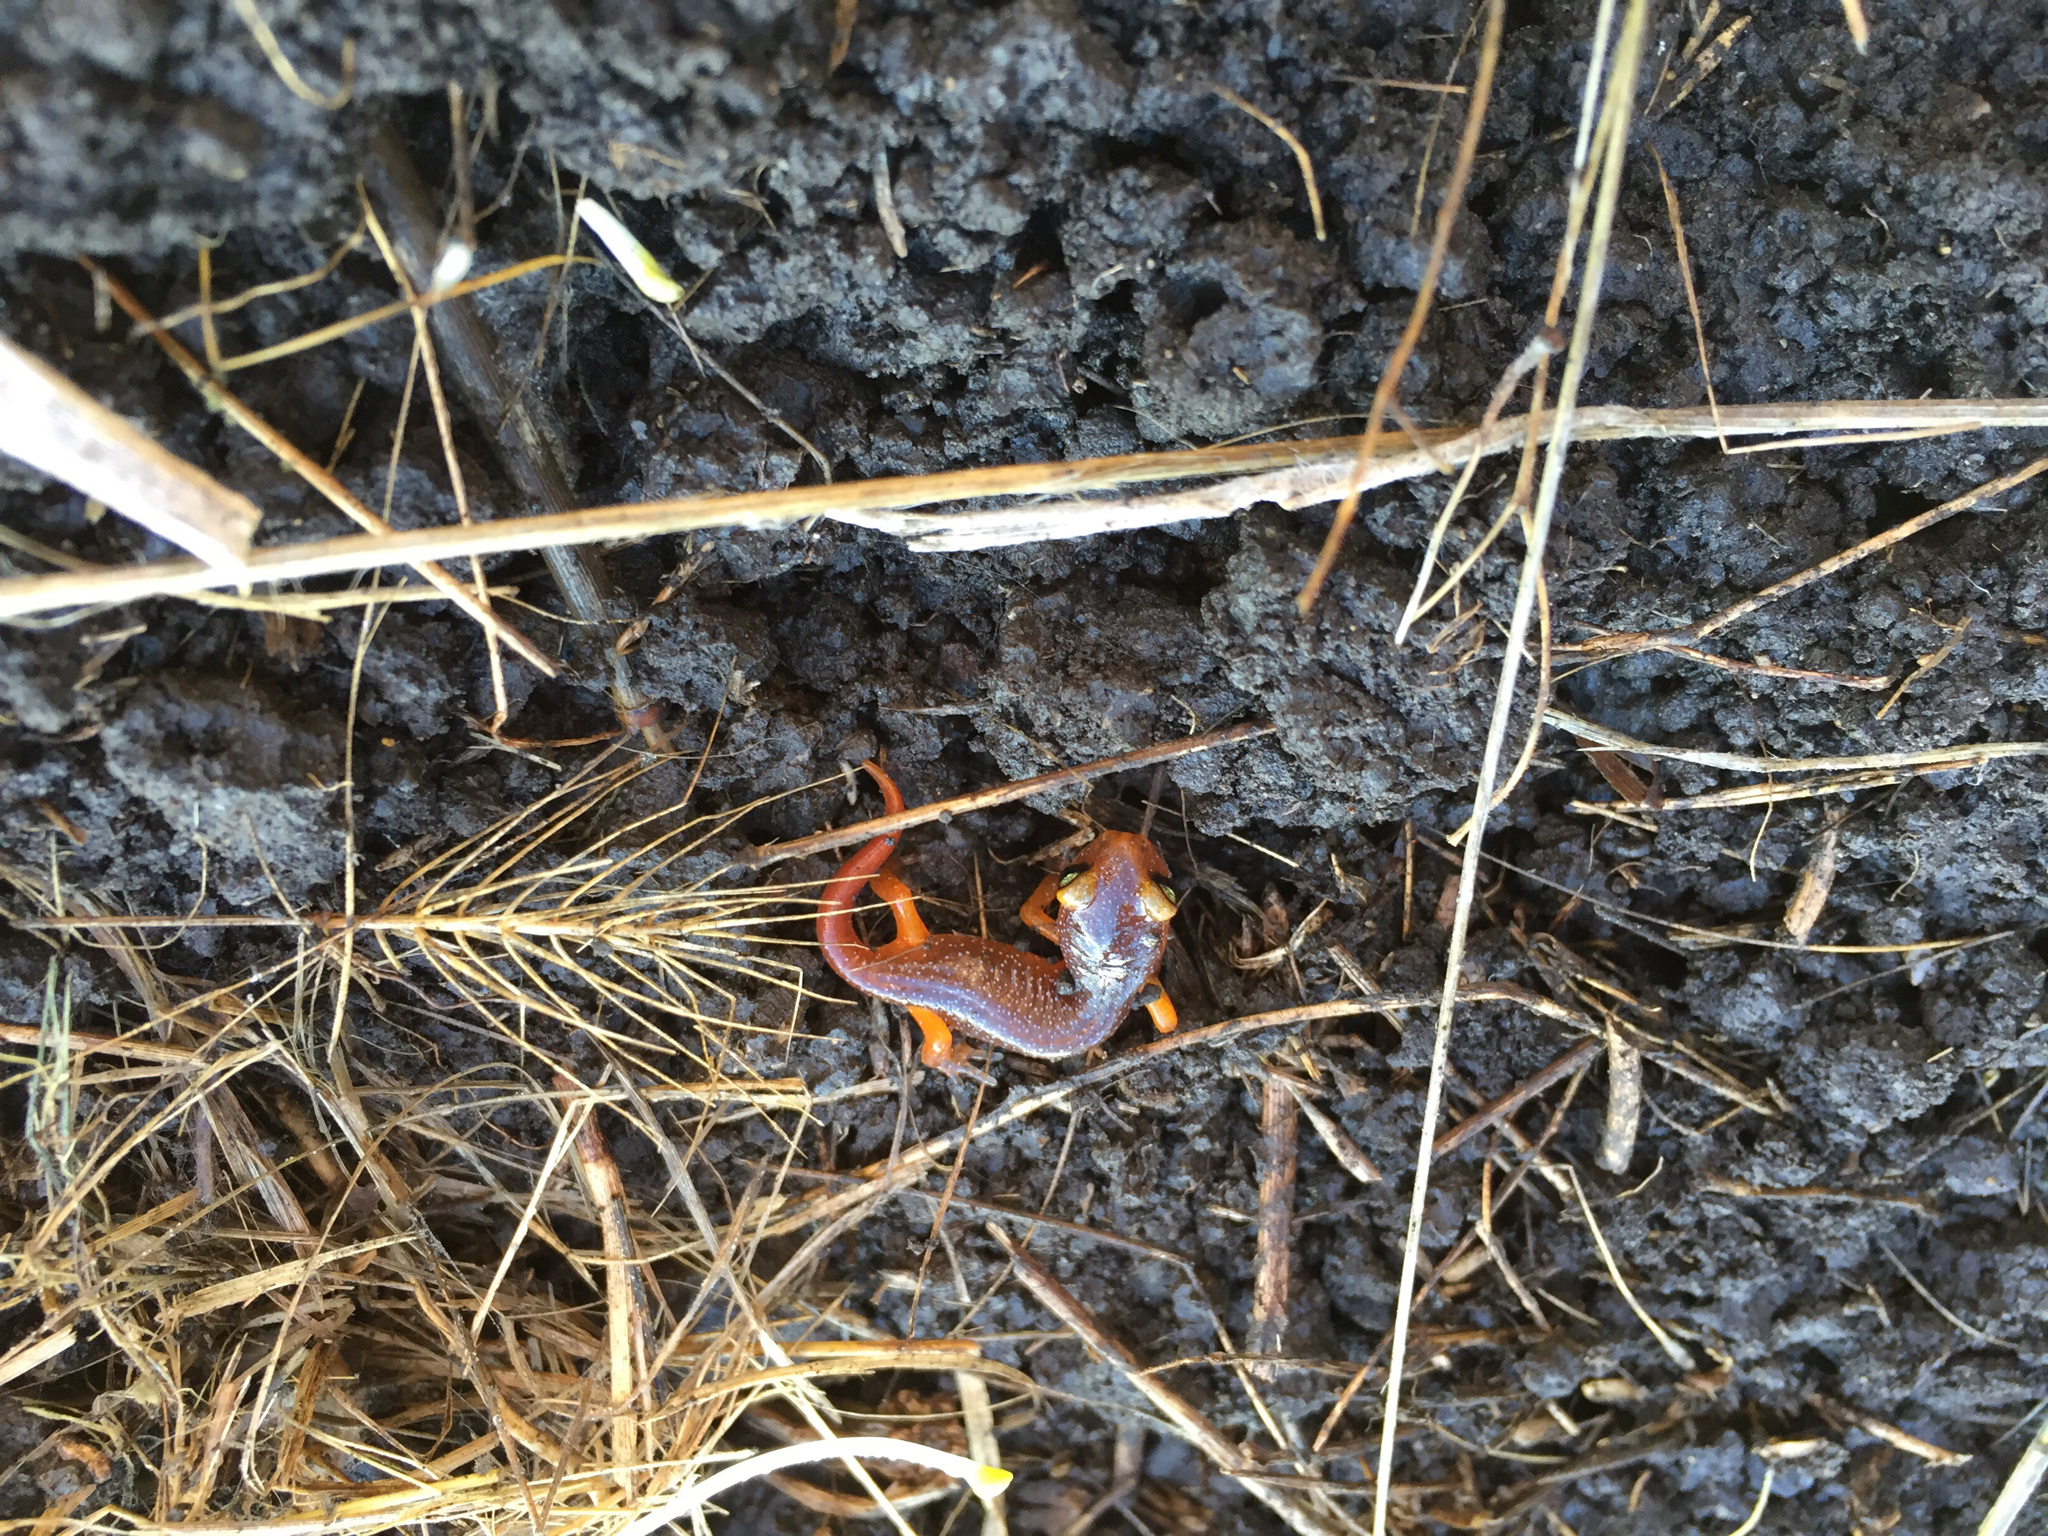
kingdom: Animalia
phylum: Chordata
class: Amphibia
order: Caudata
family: Plethodontidae
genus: Ensatina
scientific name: Ensatina eschscholtzii
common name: Ensatina
